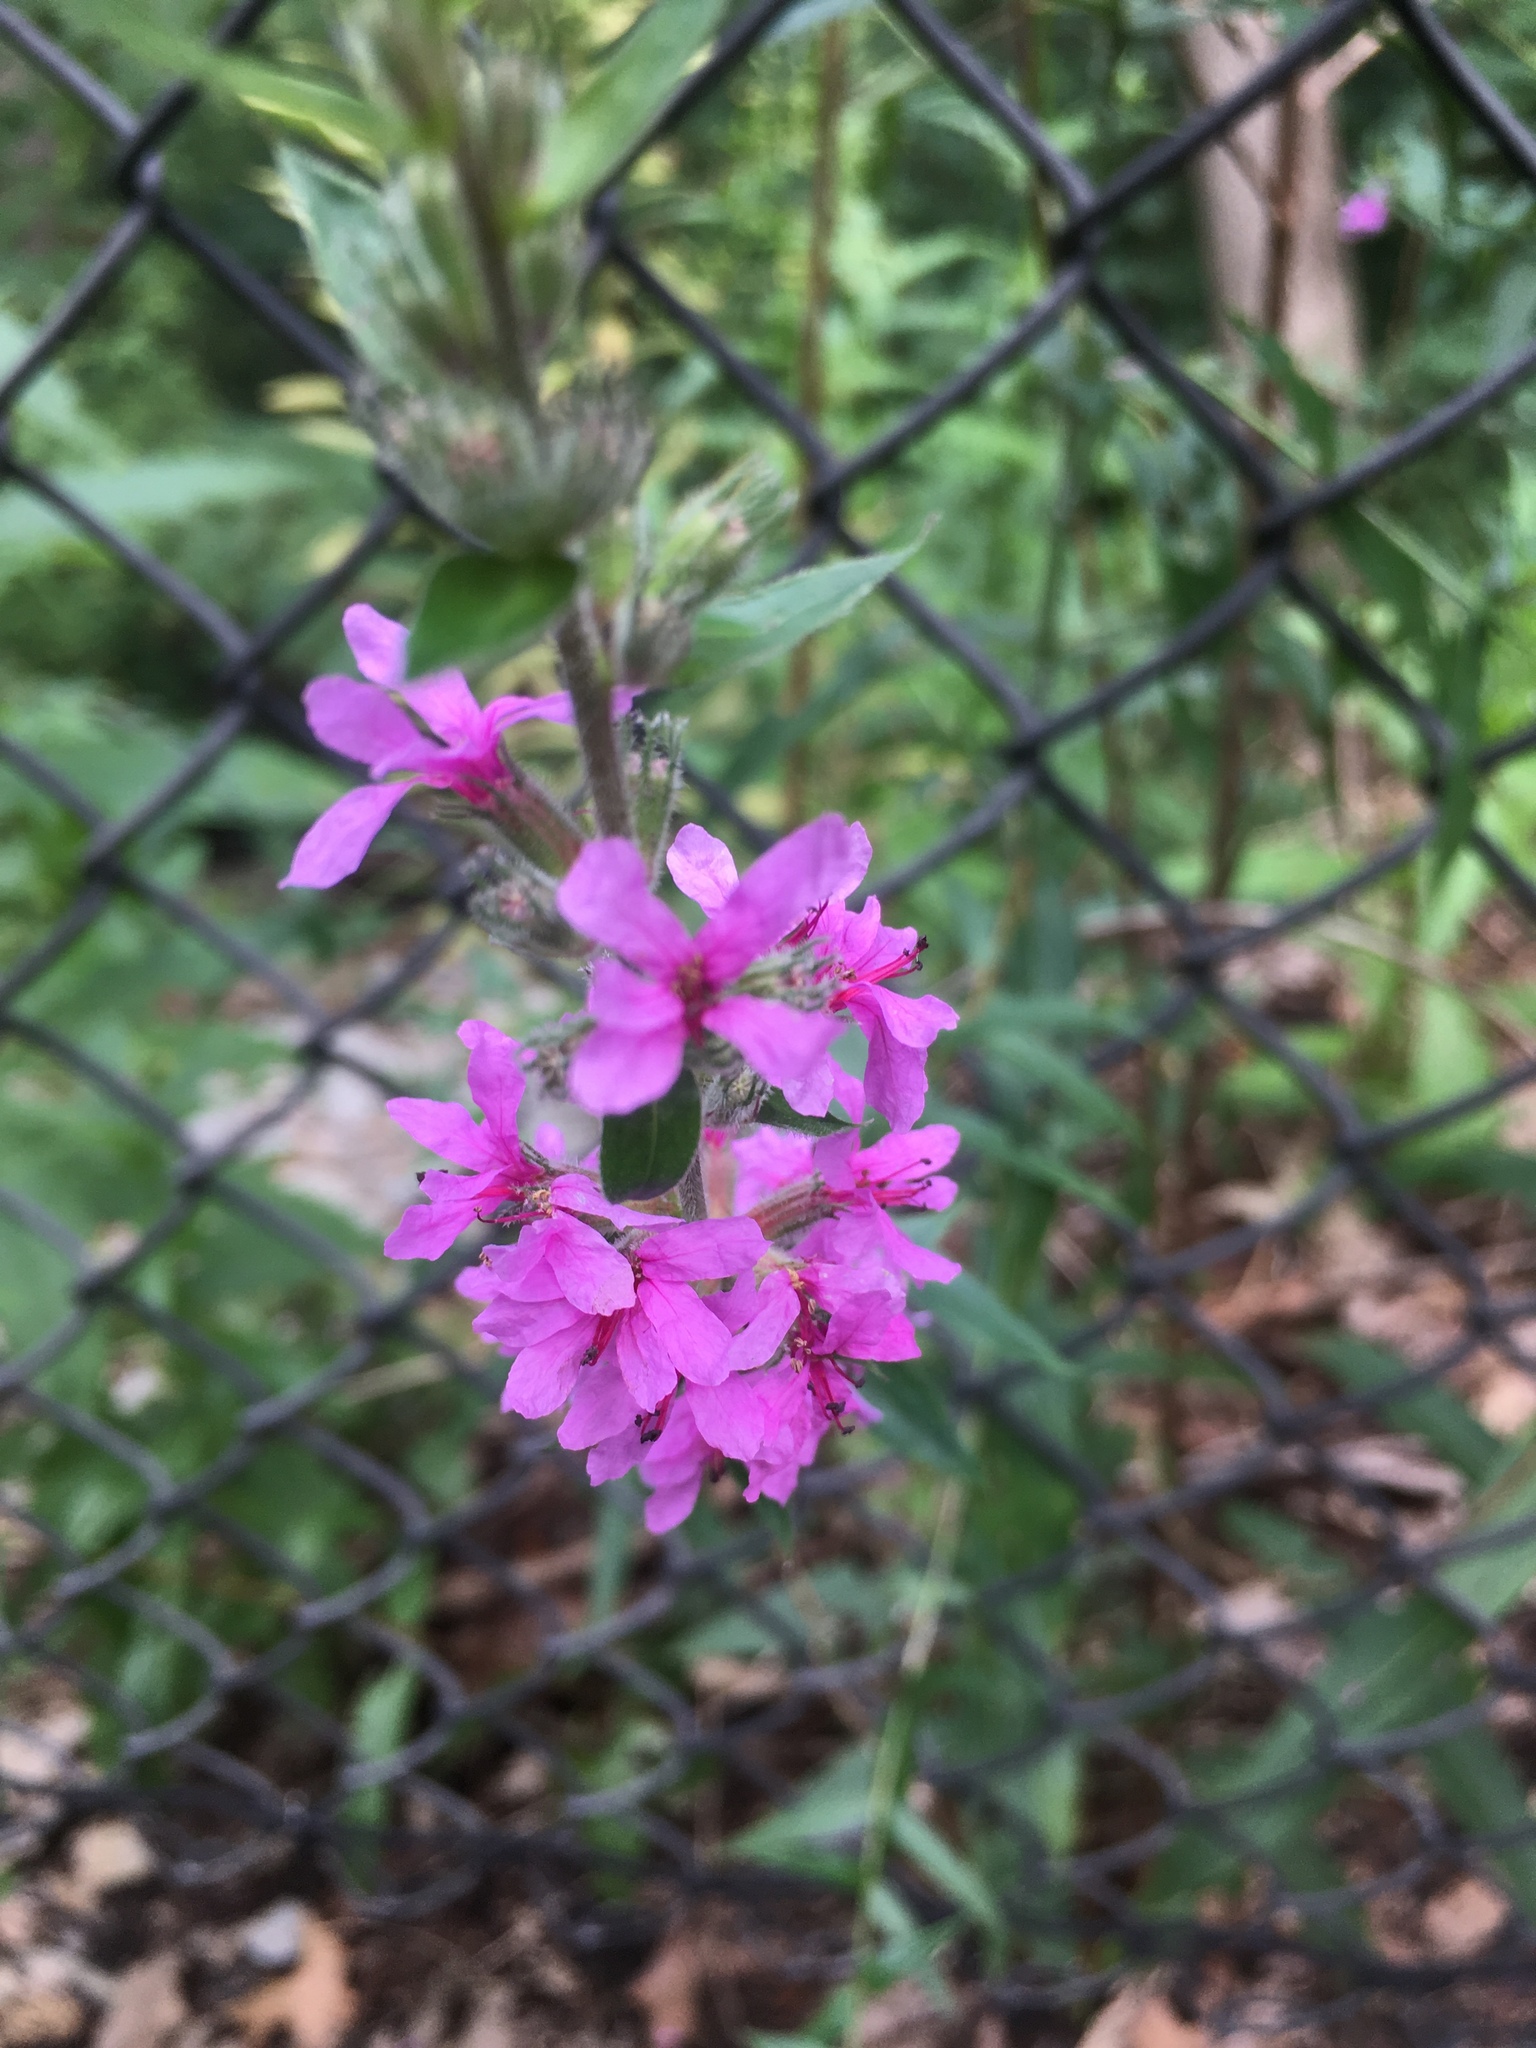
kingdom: Plantae
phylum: Tracheophyta
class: Magnoliopsida
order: Myrtales
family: Lythraceae
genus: Lythrum
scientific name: Lythrum salicaria
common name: Purple loosestrife
